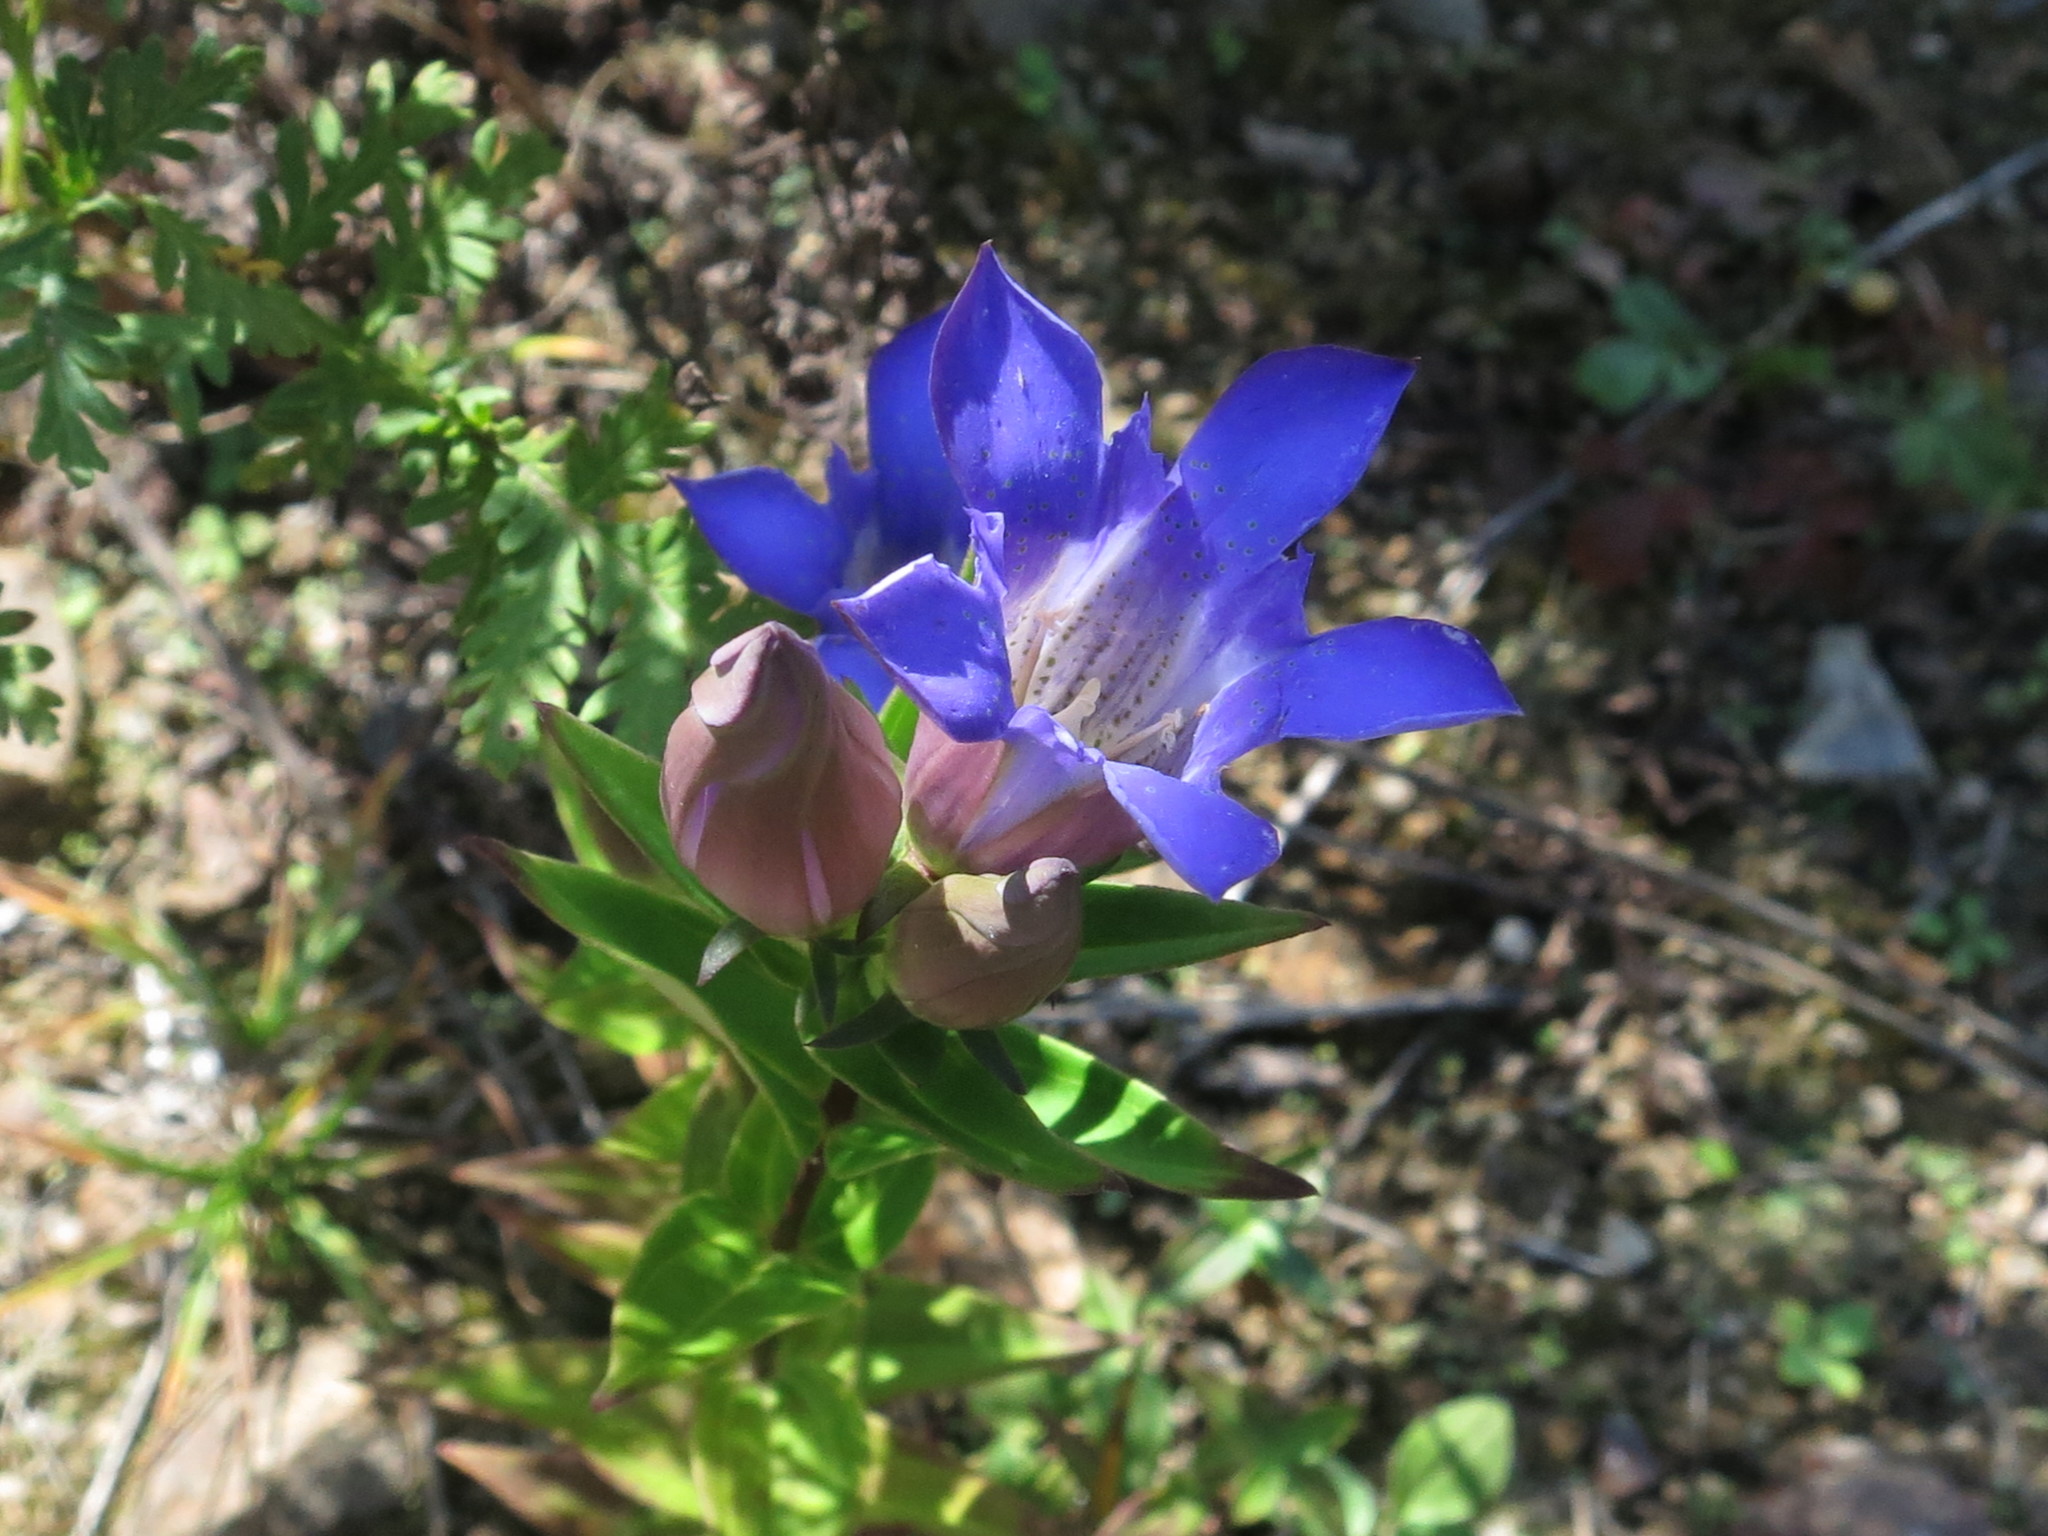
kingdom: Plantae
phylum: Tracheophyta
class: Magnoliopsida
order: Gentianales
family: Gentianaceae
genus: Gentiana
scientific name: Gentiana scabra
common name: Scabrous gentian
